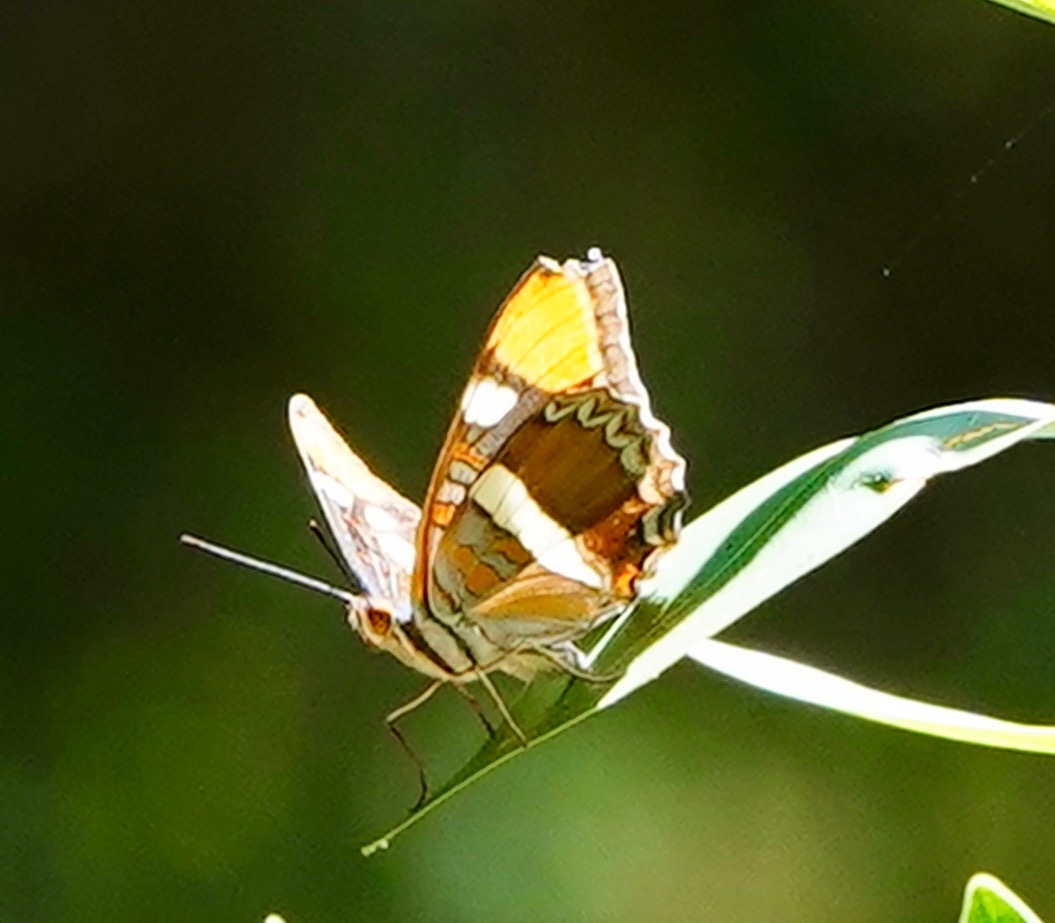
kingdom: Animalia
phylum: Arthropoda
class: Insecta
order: Lepidoptera
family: Nymphalidae
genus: Limenitis
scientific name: Limenitis bredowii
